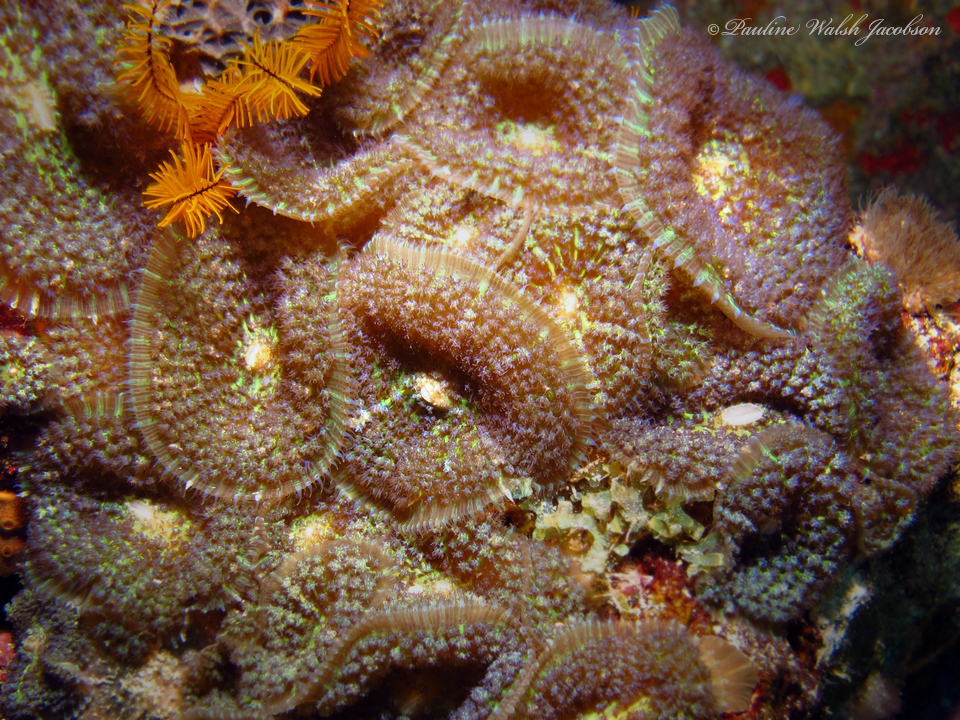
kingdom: Animalia
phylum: Cnidaria
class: Anthozoa
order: Corallimorpharia
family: Discosomidae
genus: Rhodactis
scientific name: Rhodactis osculifera
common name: Warty corallimorph
